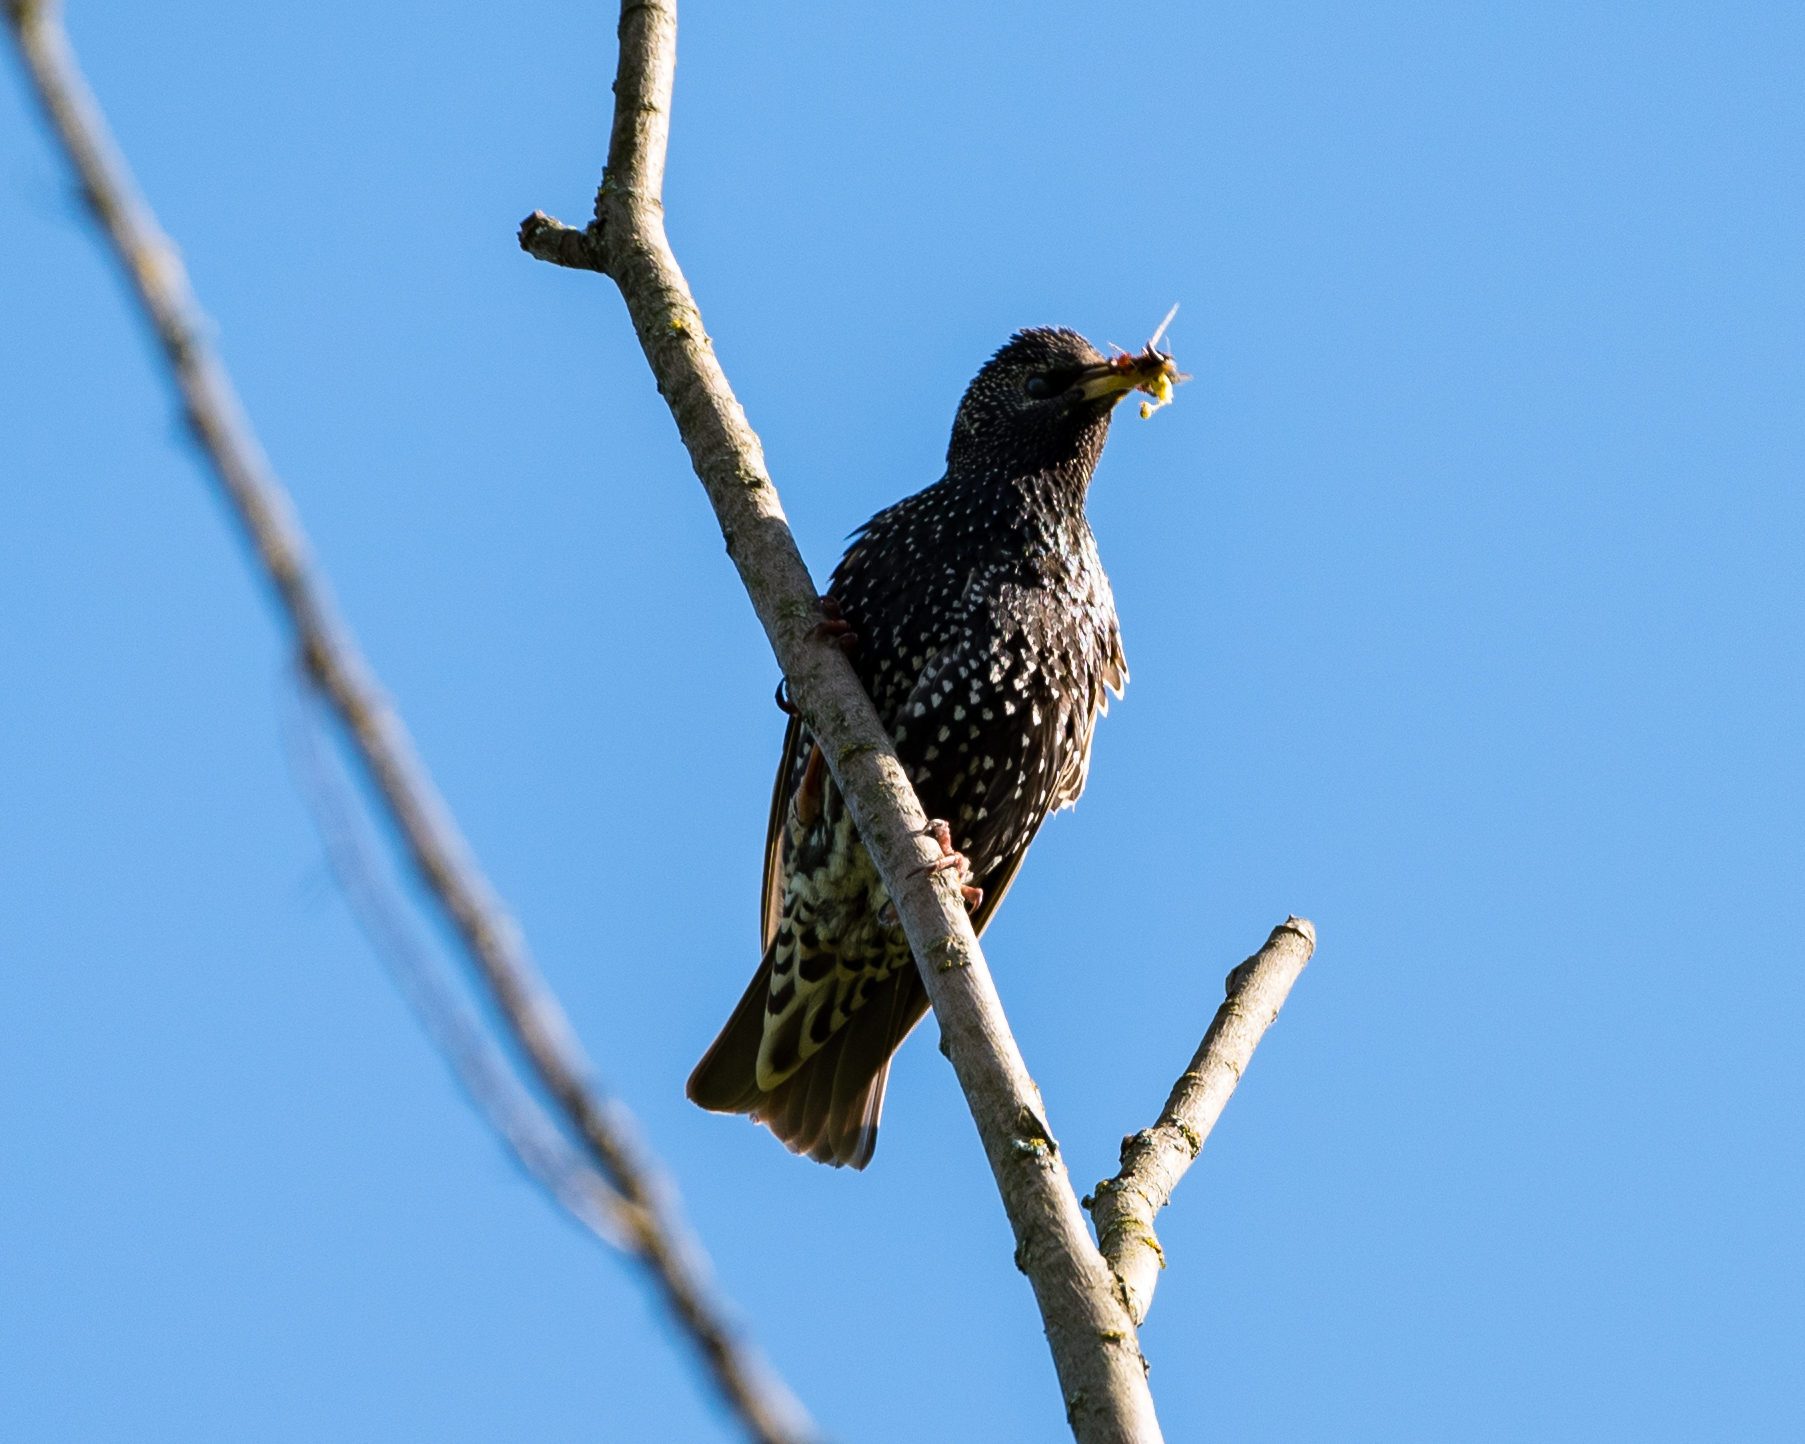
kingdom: Animalia
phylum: Chordata
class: Aves
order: Passeriformes
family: Sturnidae
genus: Sturnus
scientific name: Sturnus vulgaris
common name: Common starling
